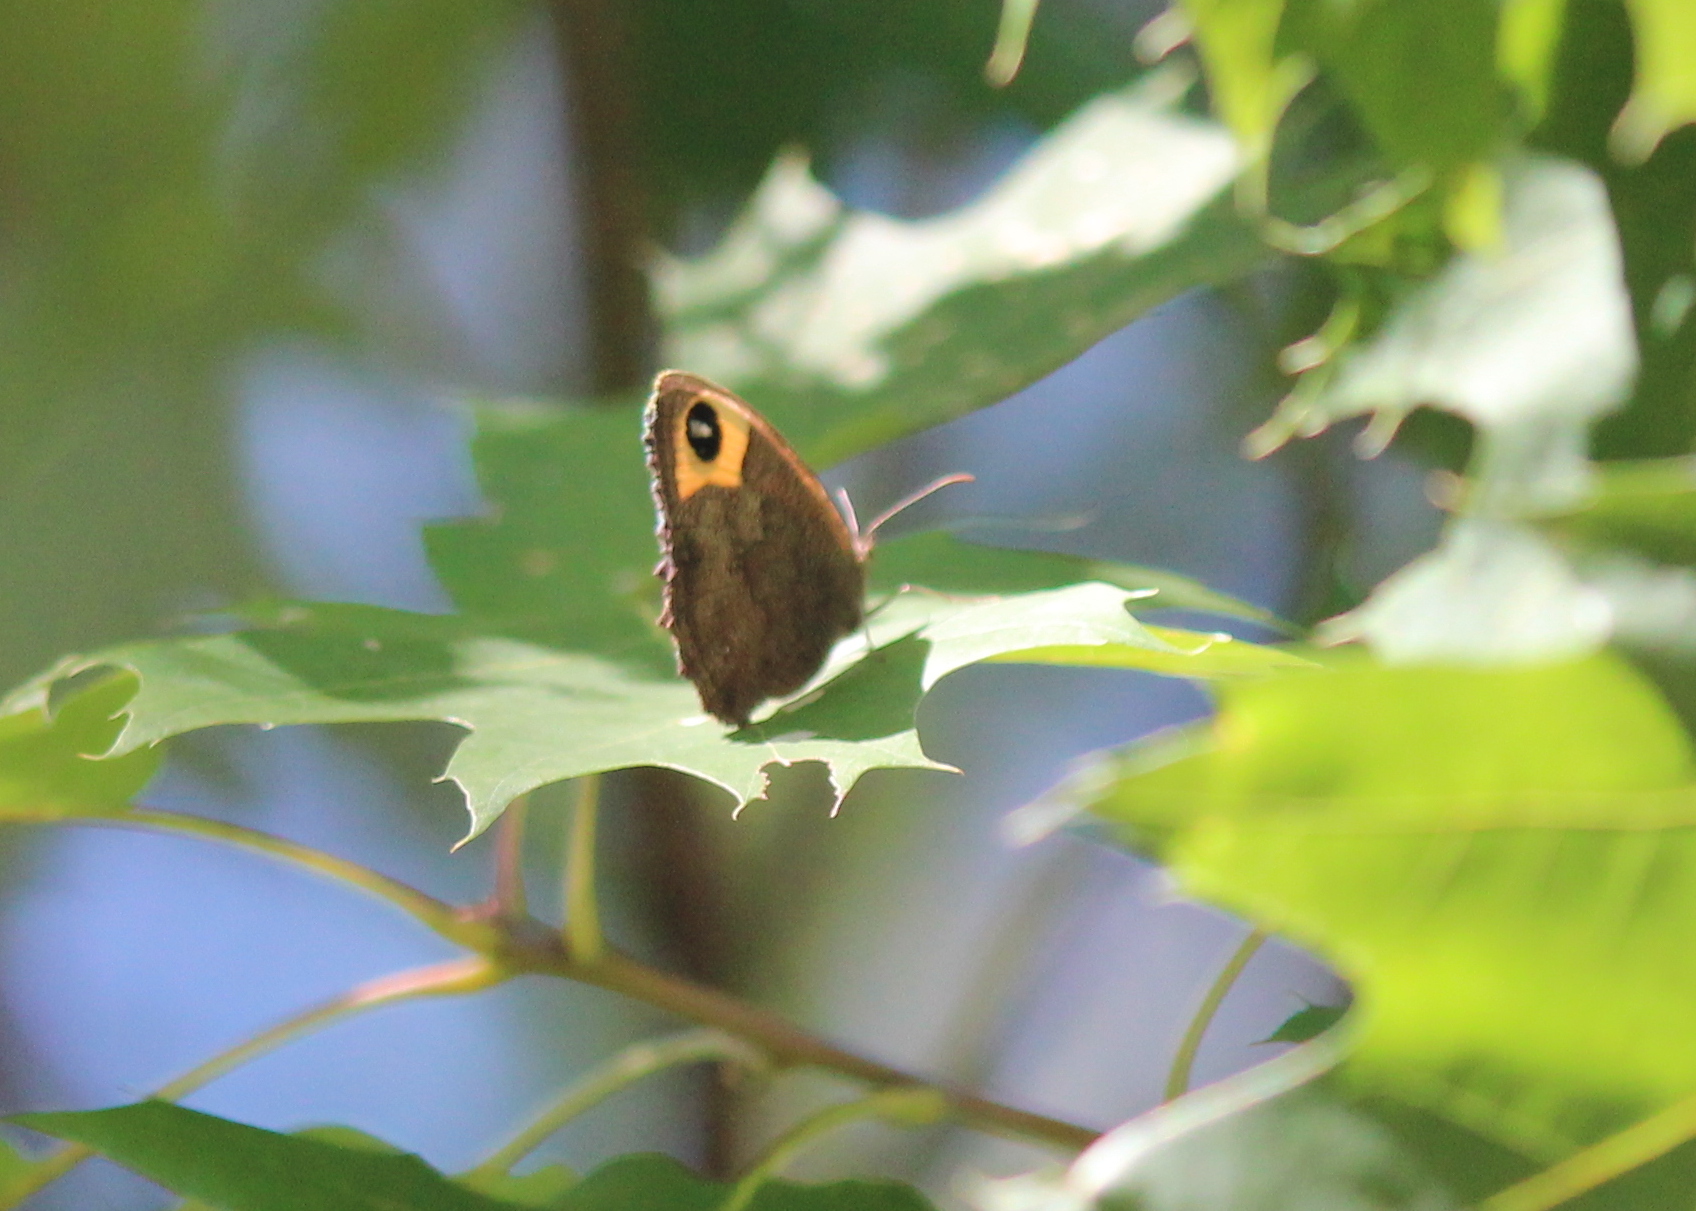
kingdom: Animalia
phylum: Arthropoda
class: Insecta
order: Lepidoptera
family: Nymphalidae
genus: Cercyonis
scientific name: Cercyonis pegala
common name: Common wood-nymph
